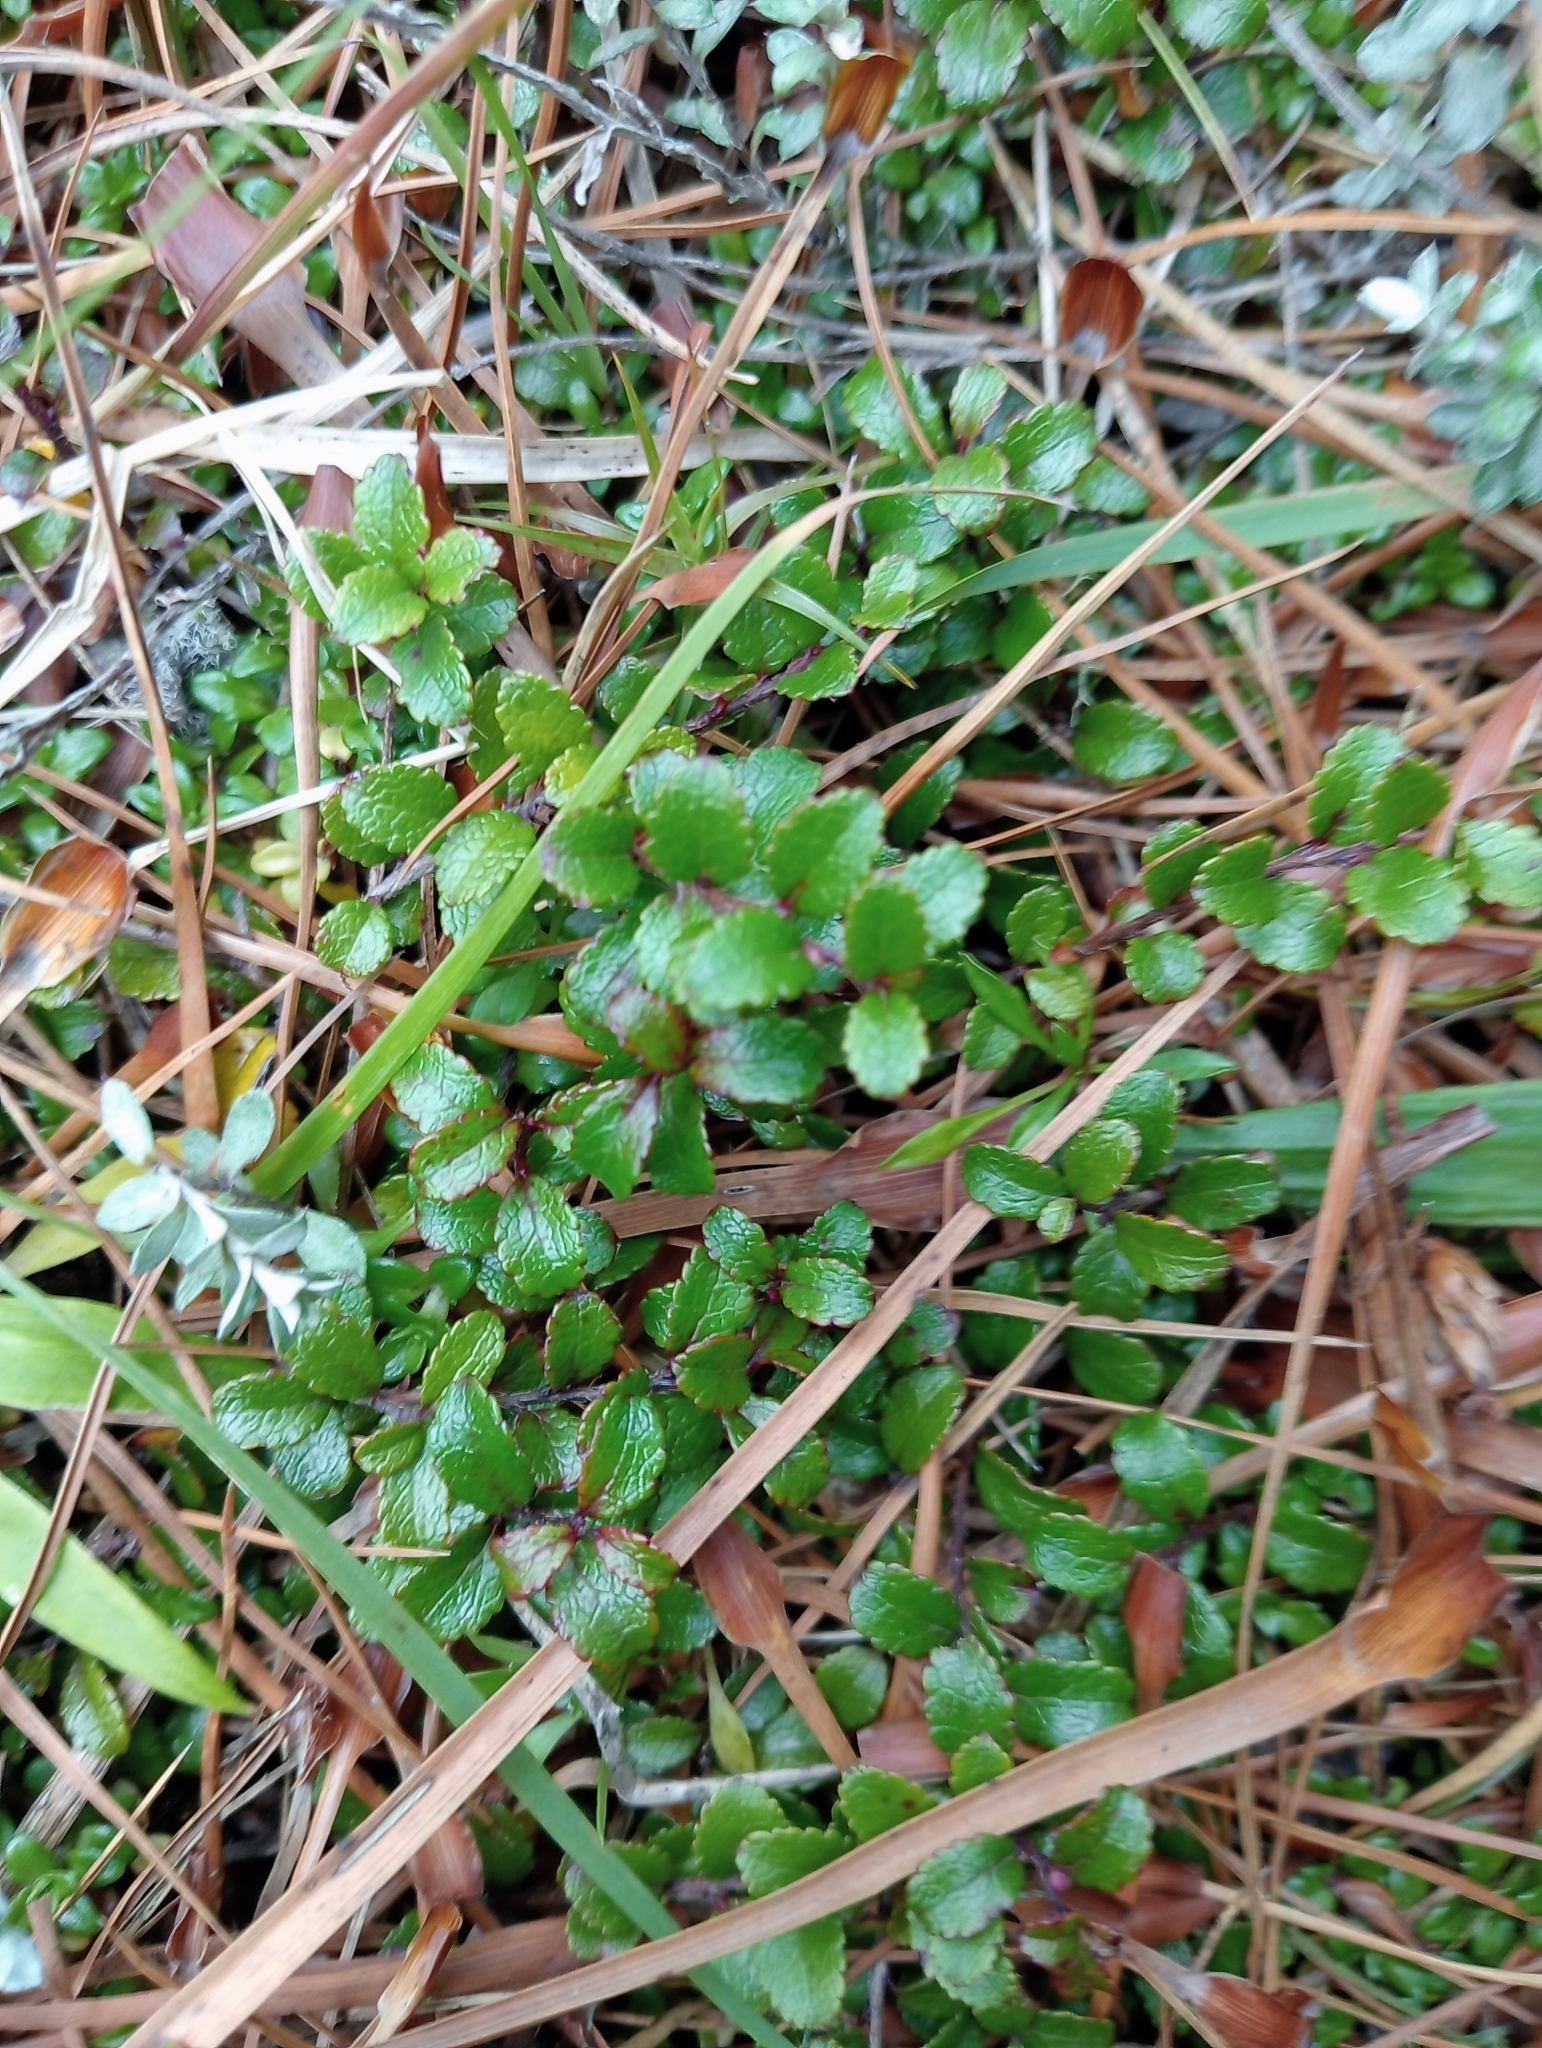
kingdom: Plantae
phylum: Tracheophyta
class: Magnoliopsida
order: Ericales
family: Ericaceae
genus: Gaultheria
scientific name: Gaultheria depressa
